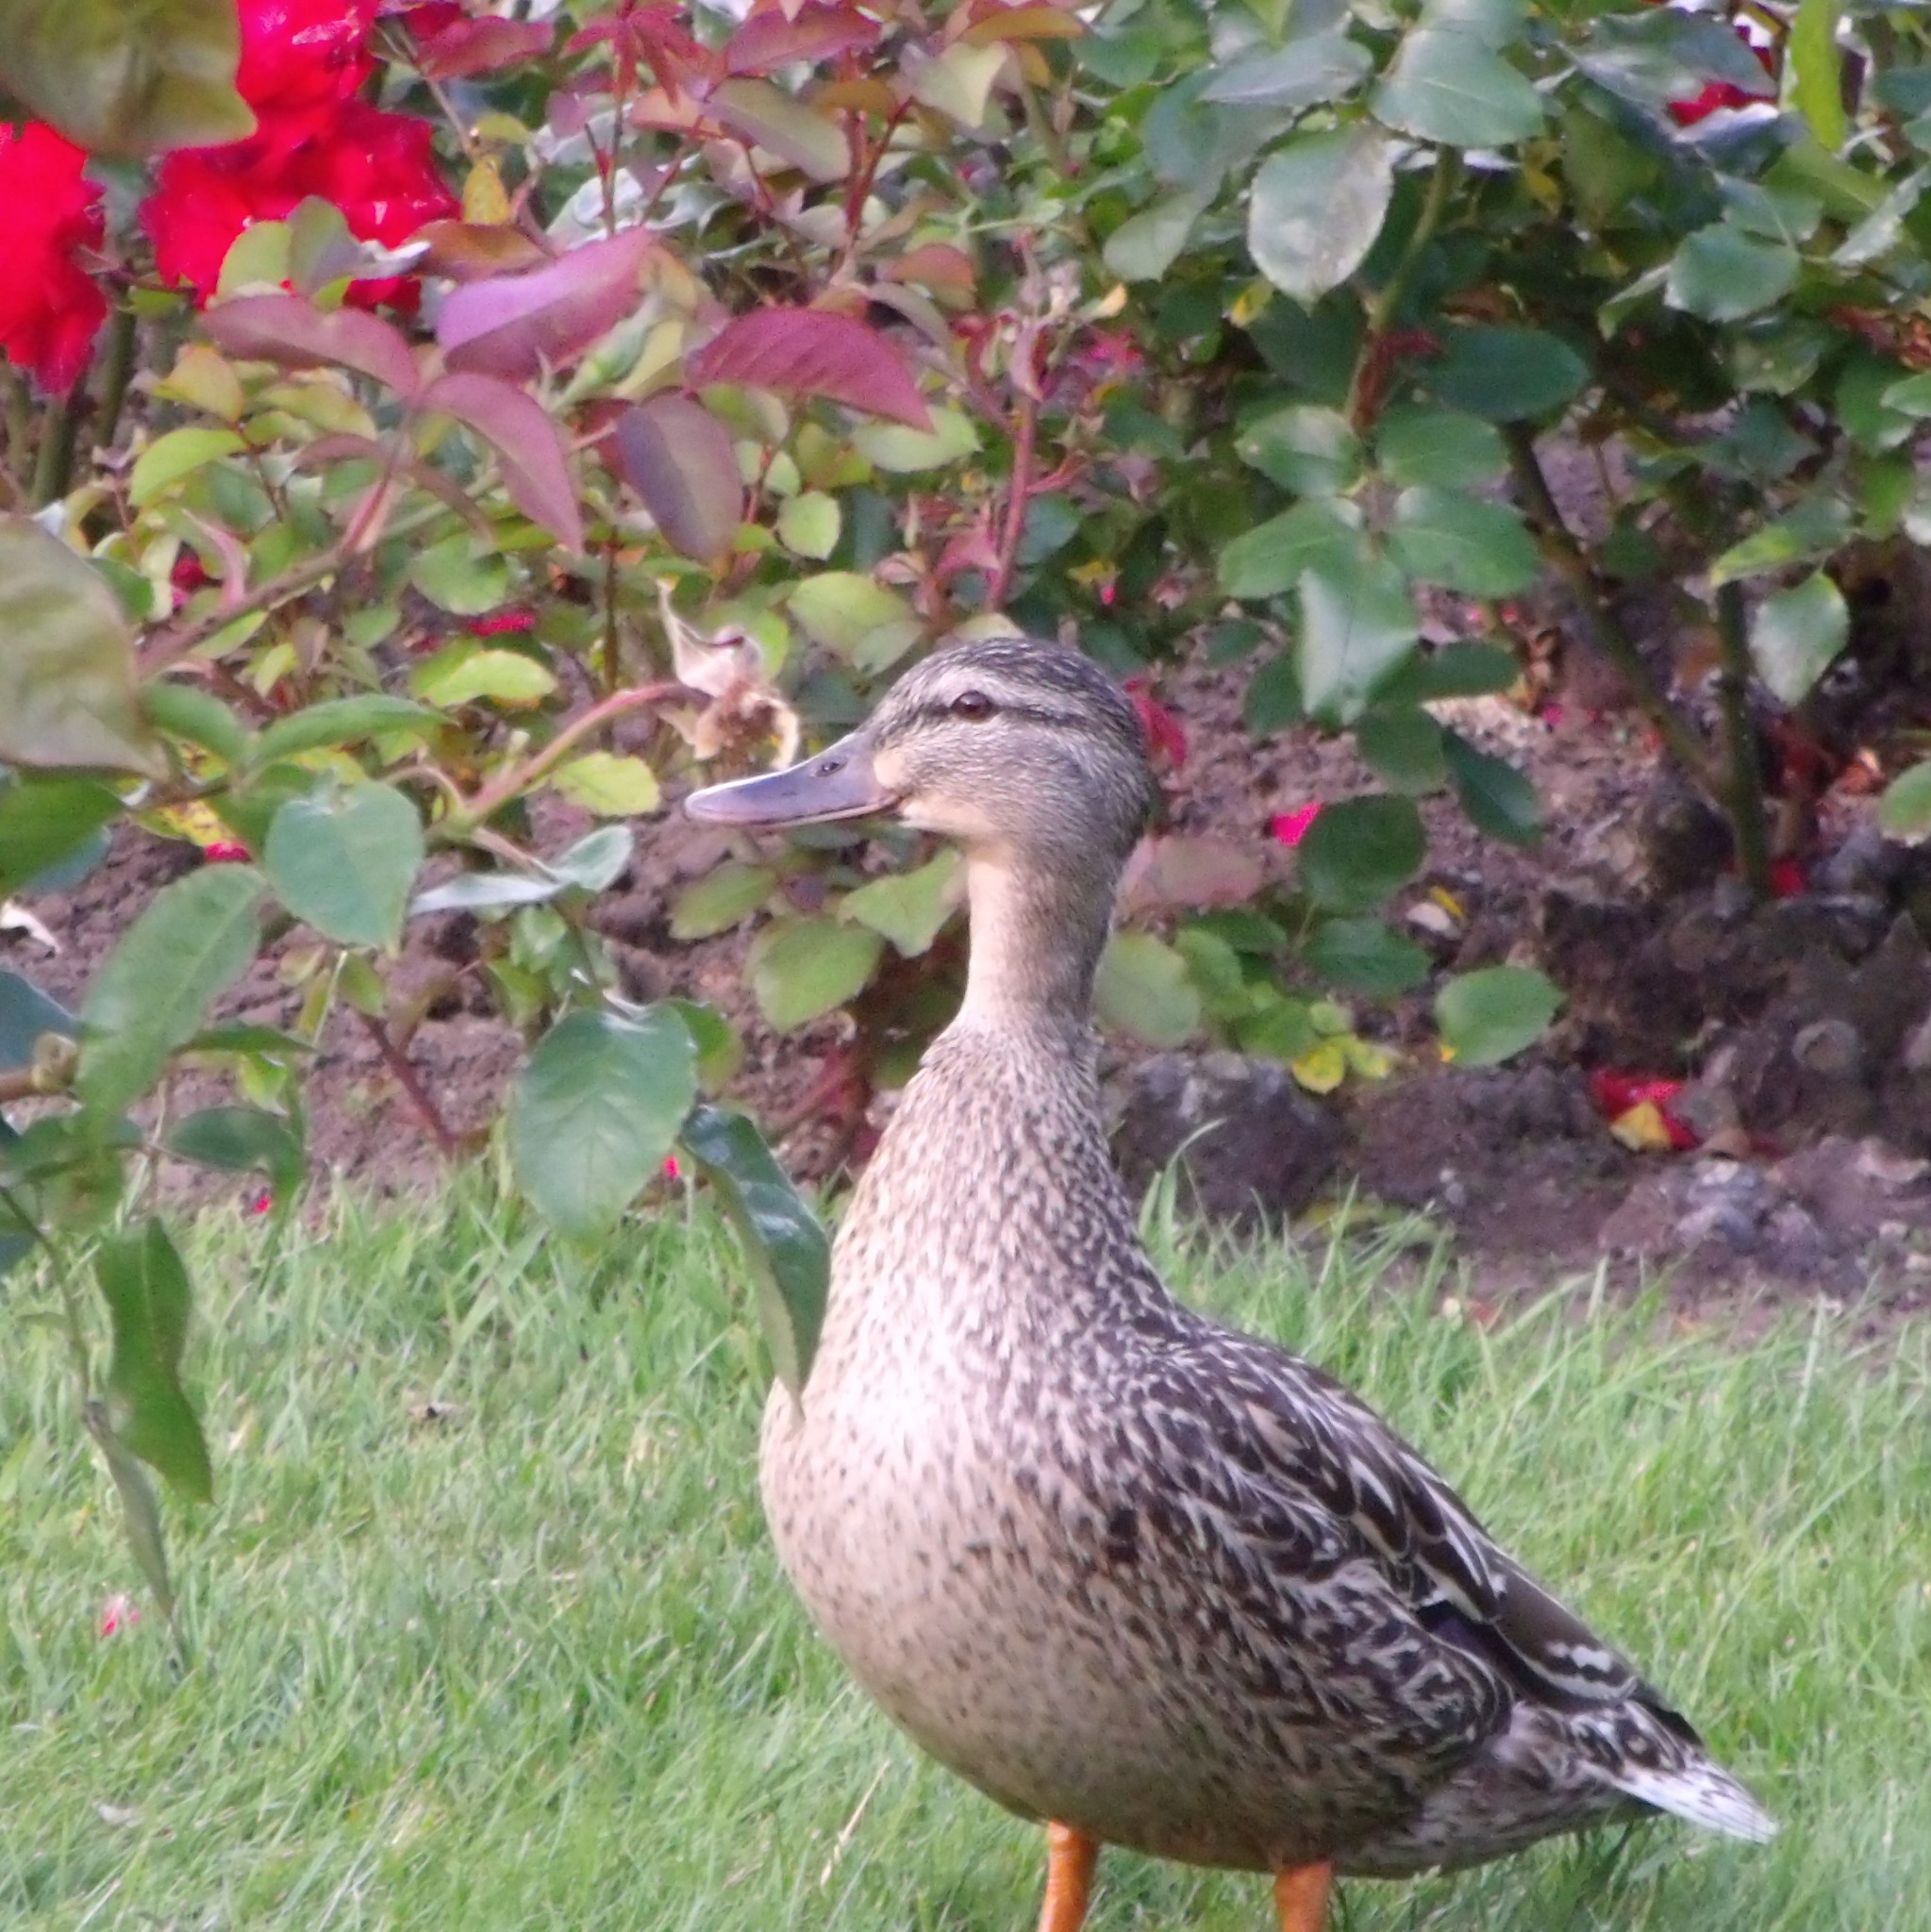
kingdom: Animalia
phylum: Chordata
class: Aves
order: Anseriformes
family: Anatidae
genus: Anas
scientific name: Anas platyrhynchos
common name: Mallard
